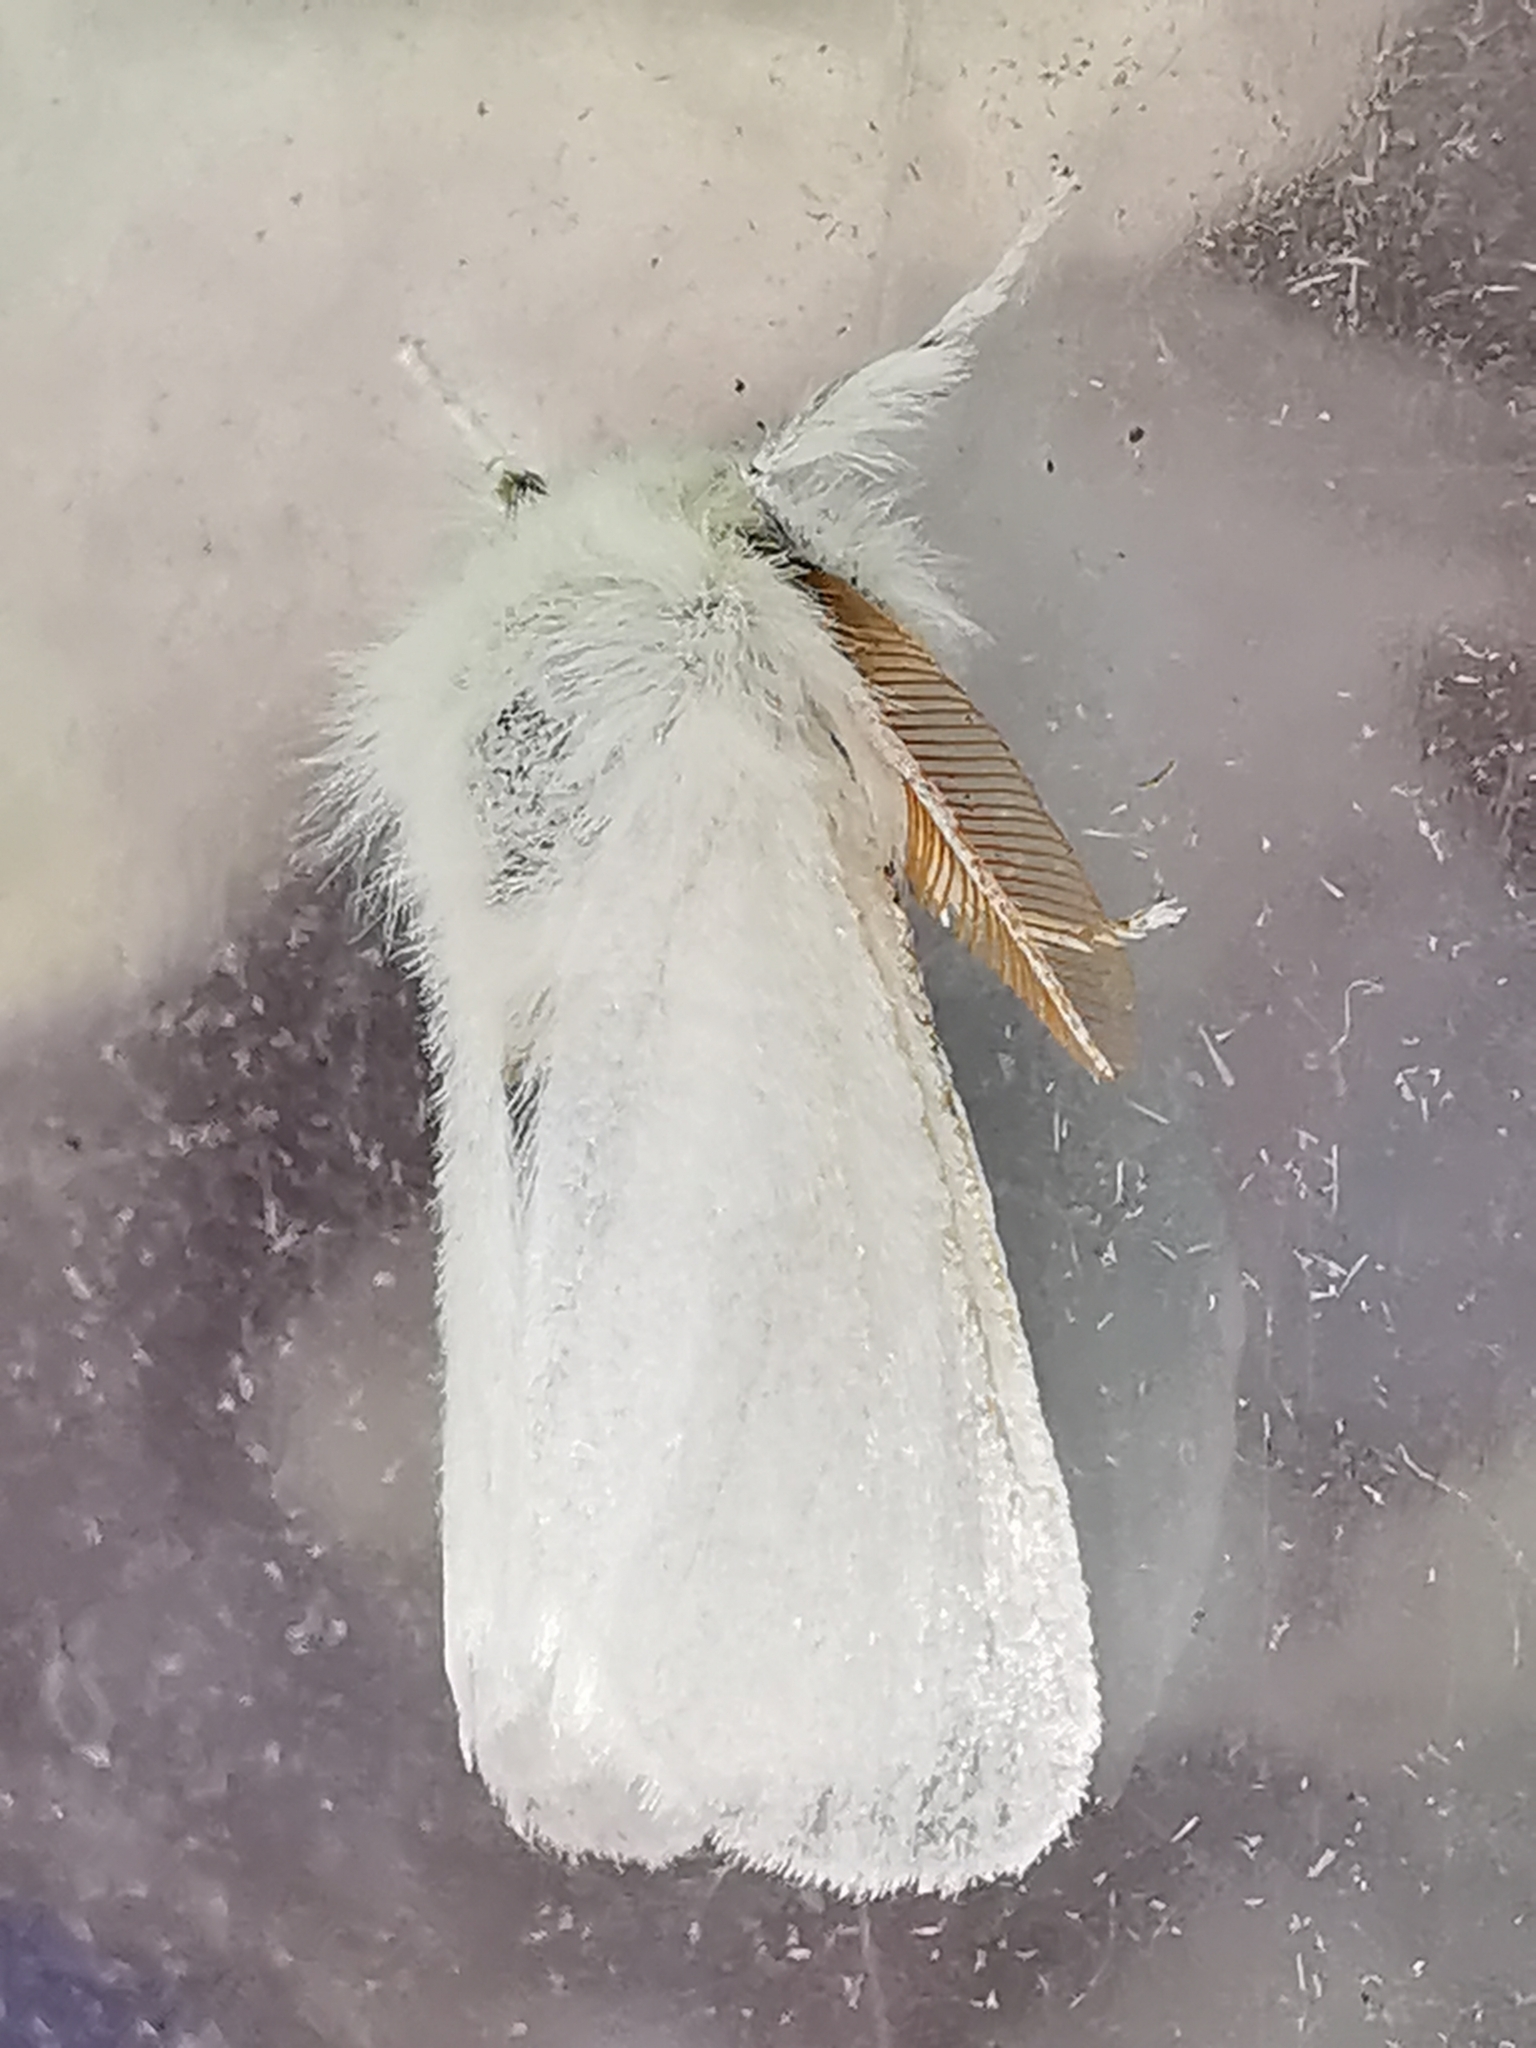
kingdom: Animalia
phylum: Arthropoda
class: Insecta
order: Lepidoptera
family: Erebidae
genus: Euproctis
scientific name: Euproctis chrysorrhoea
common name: Brown-tail
